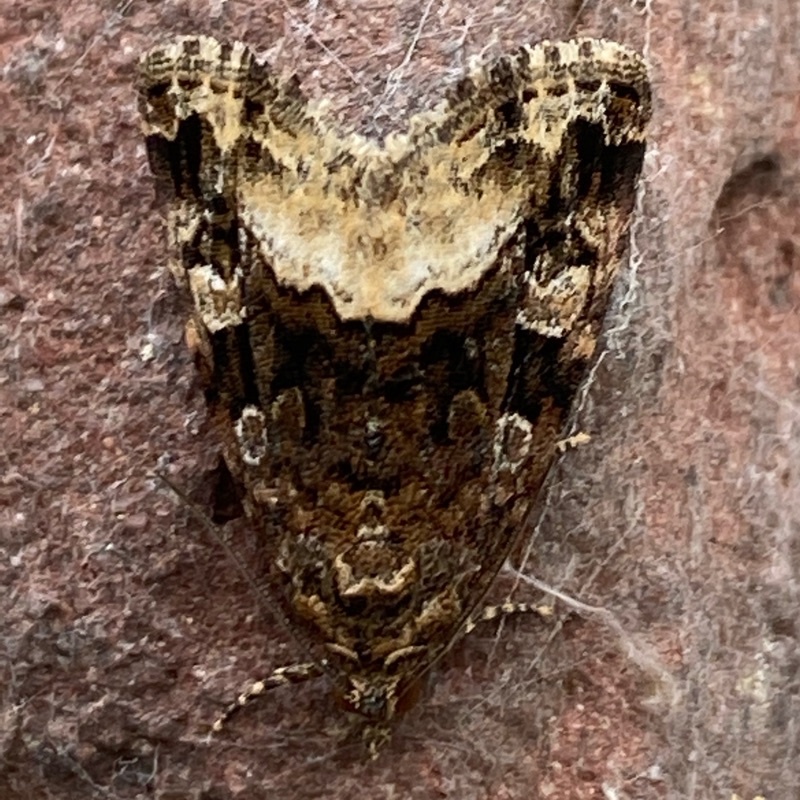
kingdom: Animalia
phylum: Arthropoda
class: Insecta
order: Lepidoptera
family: Noctuidae
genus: Deltote
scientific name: Deltote pygarga
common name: Marbled white spot
